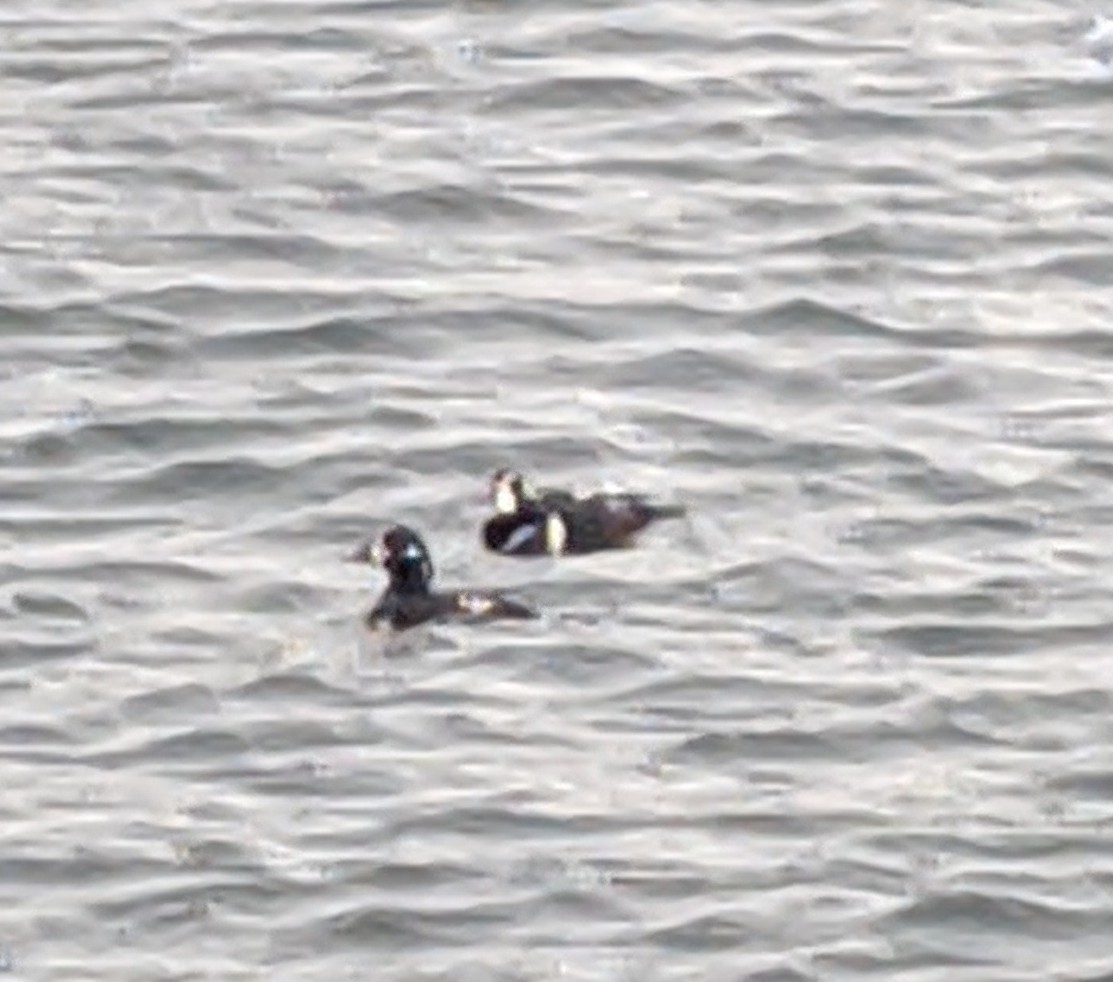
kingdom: Animalia
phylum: Chordata
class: Aves
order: Anseriformes
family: Anatidae
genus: Histrionicus
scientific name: Histrionicus histrionicus
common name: Harlequin duck
